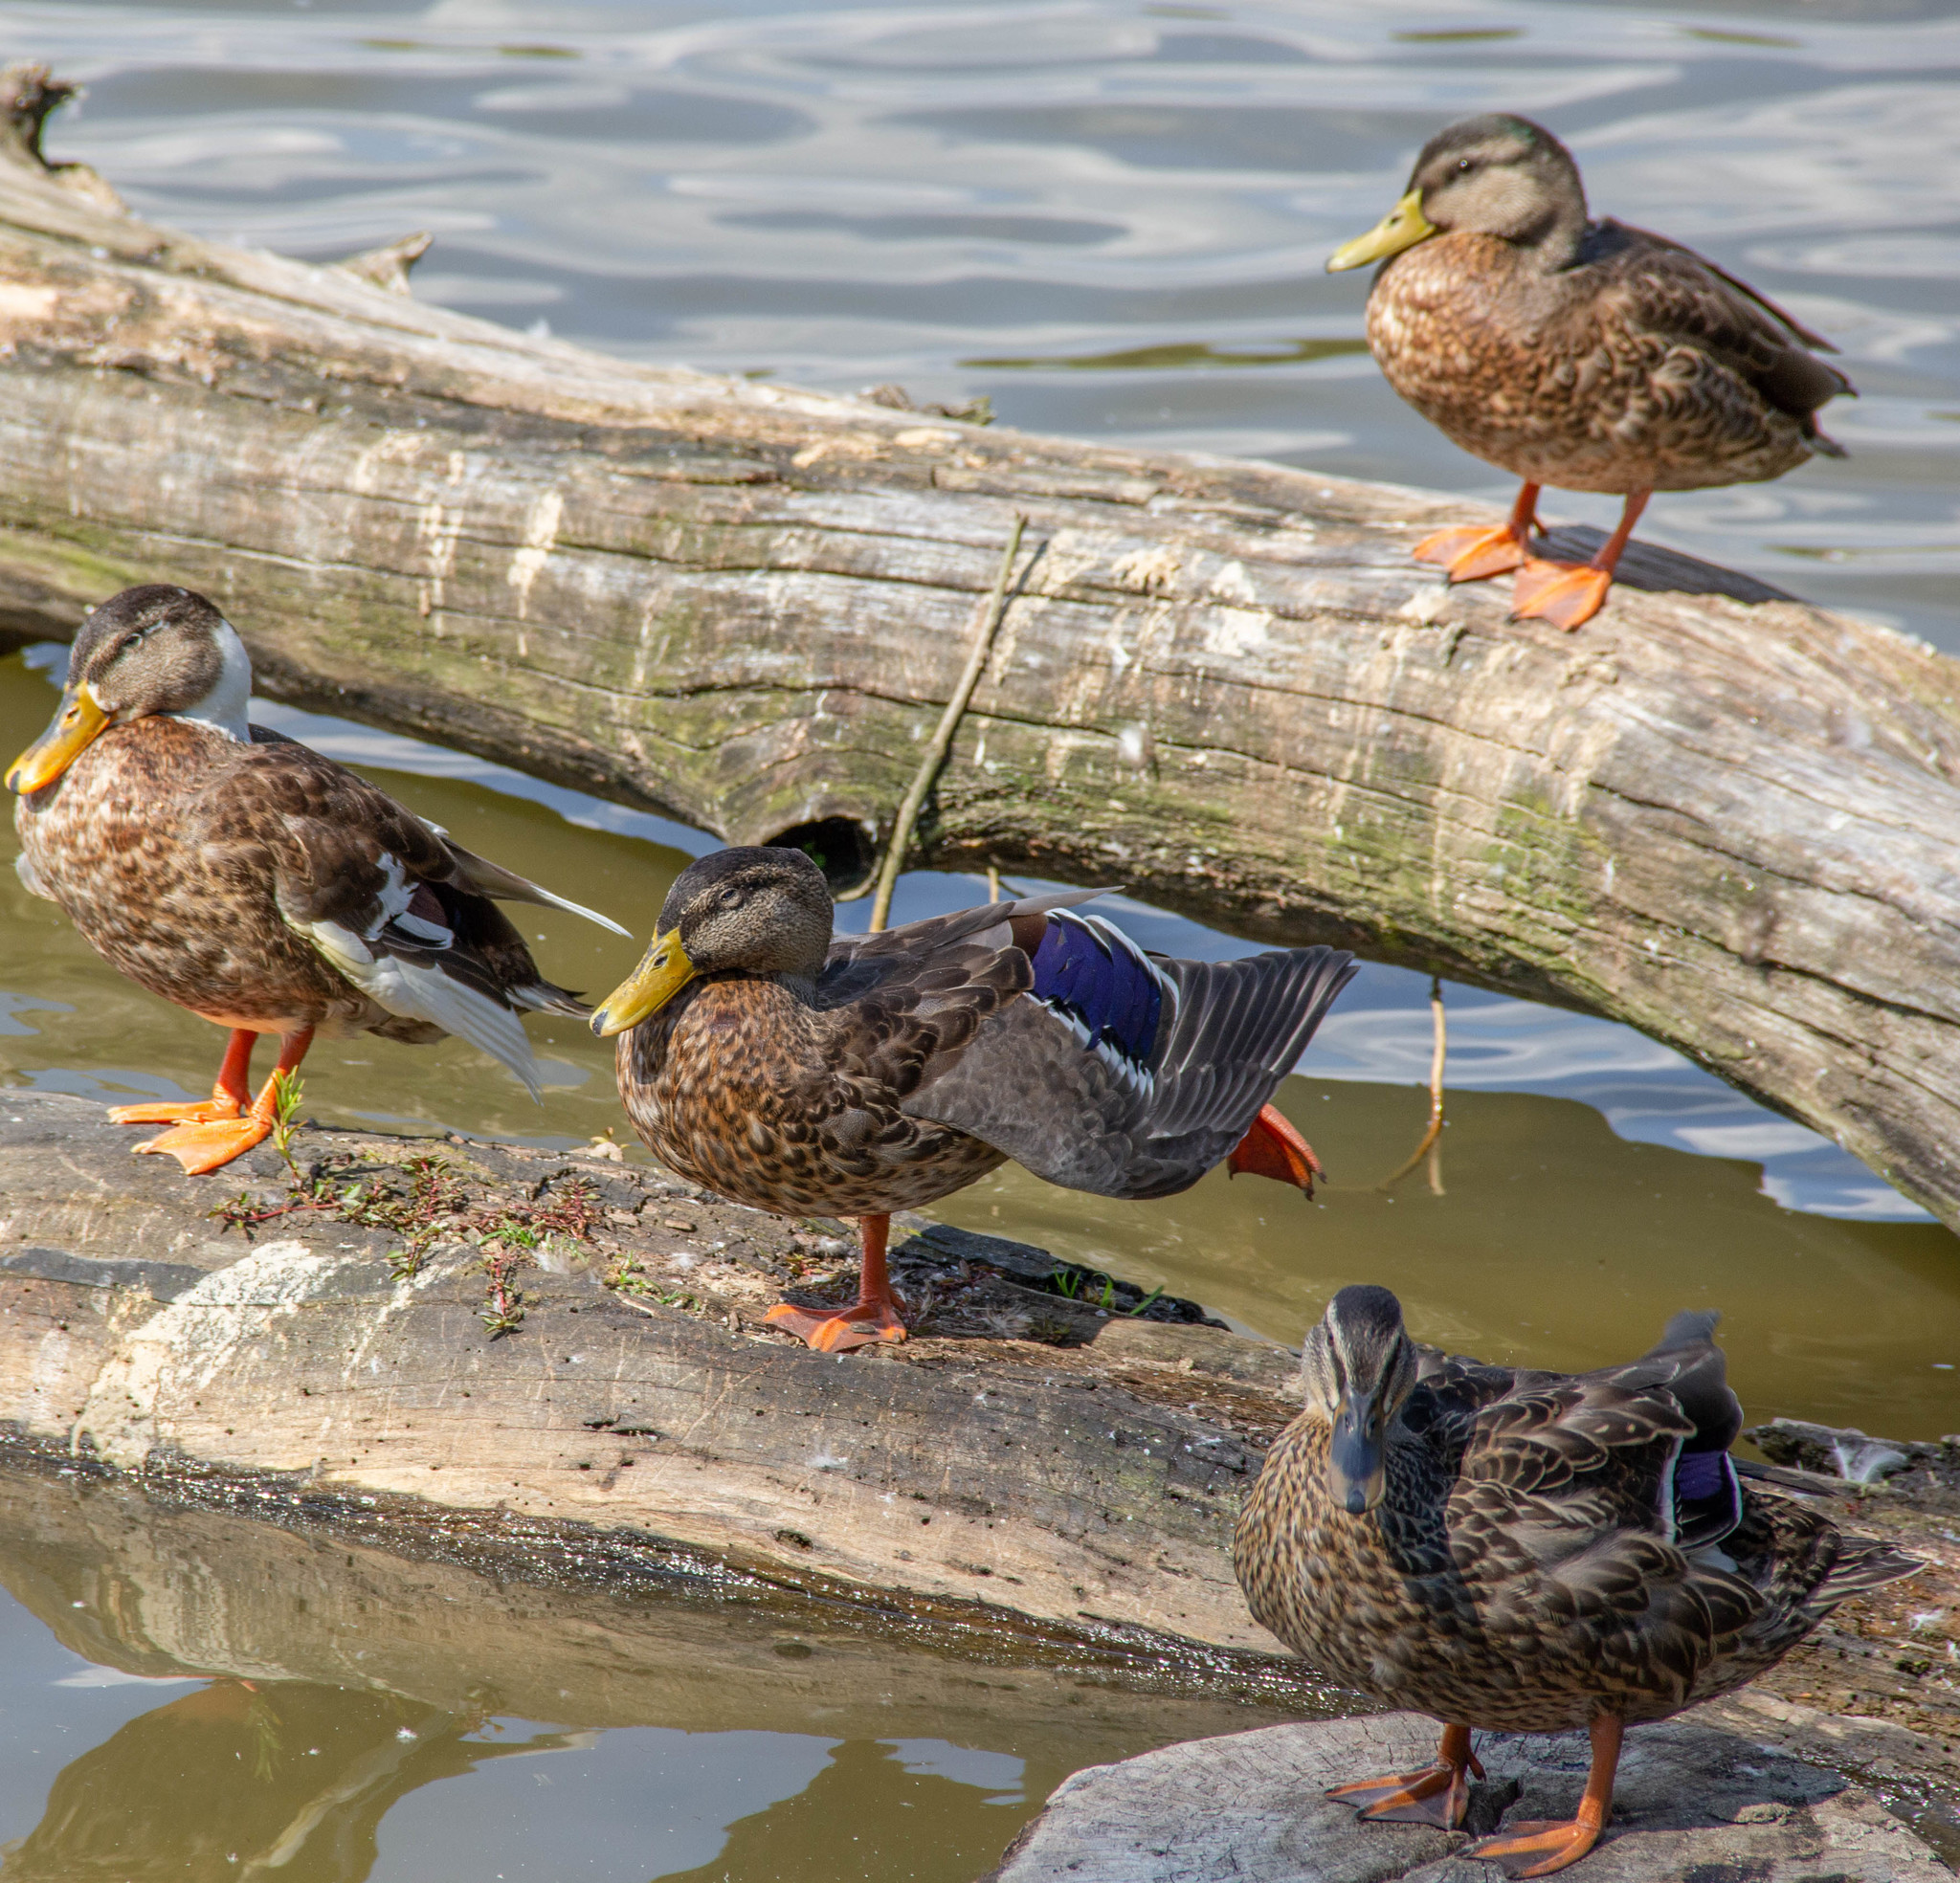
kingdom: Animalia
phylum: Chordata
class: Aves
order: Anseriformes
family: Anatidae
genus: Anas
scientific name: Anas platyrhynchos
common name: Mallard
